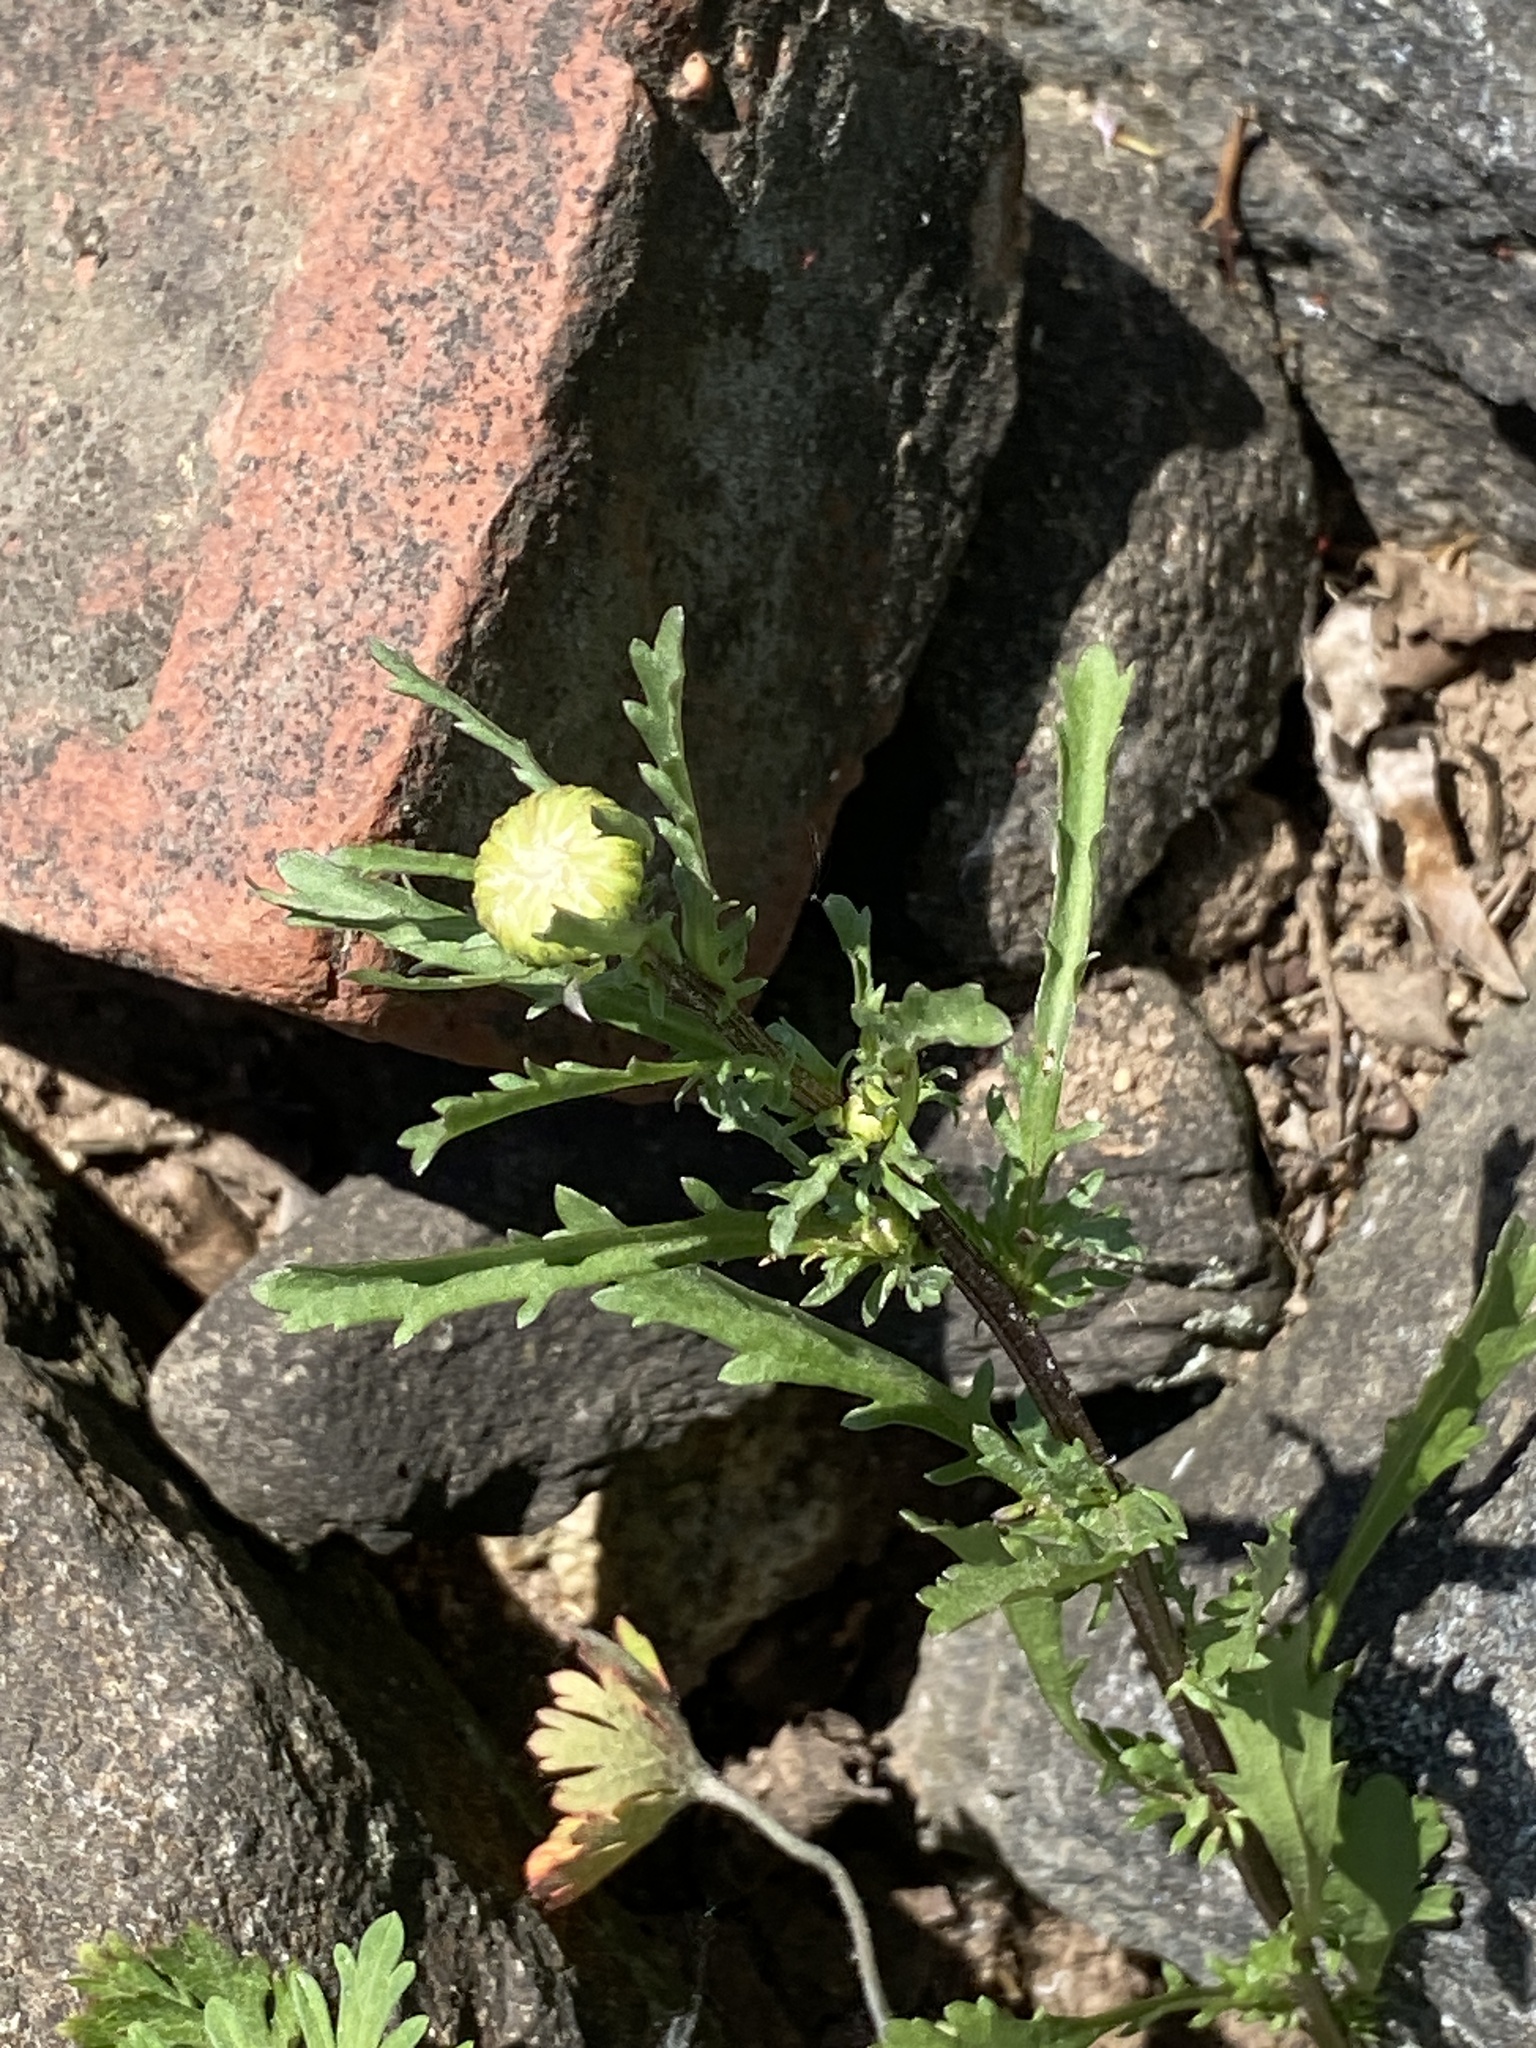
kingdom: Plantae
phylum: Tracheophyta
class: Magnoliopsida
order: Asterales
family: Asteraceae
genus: Leucanthemum
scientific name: Leucanthemum vulgare
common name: Oxeye daisy
